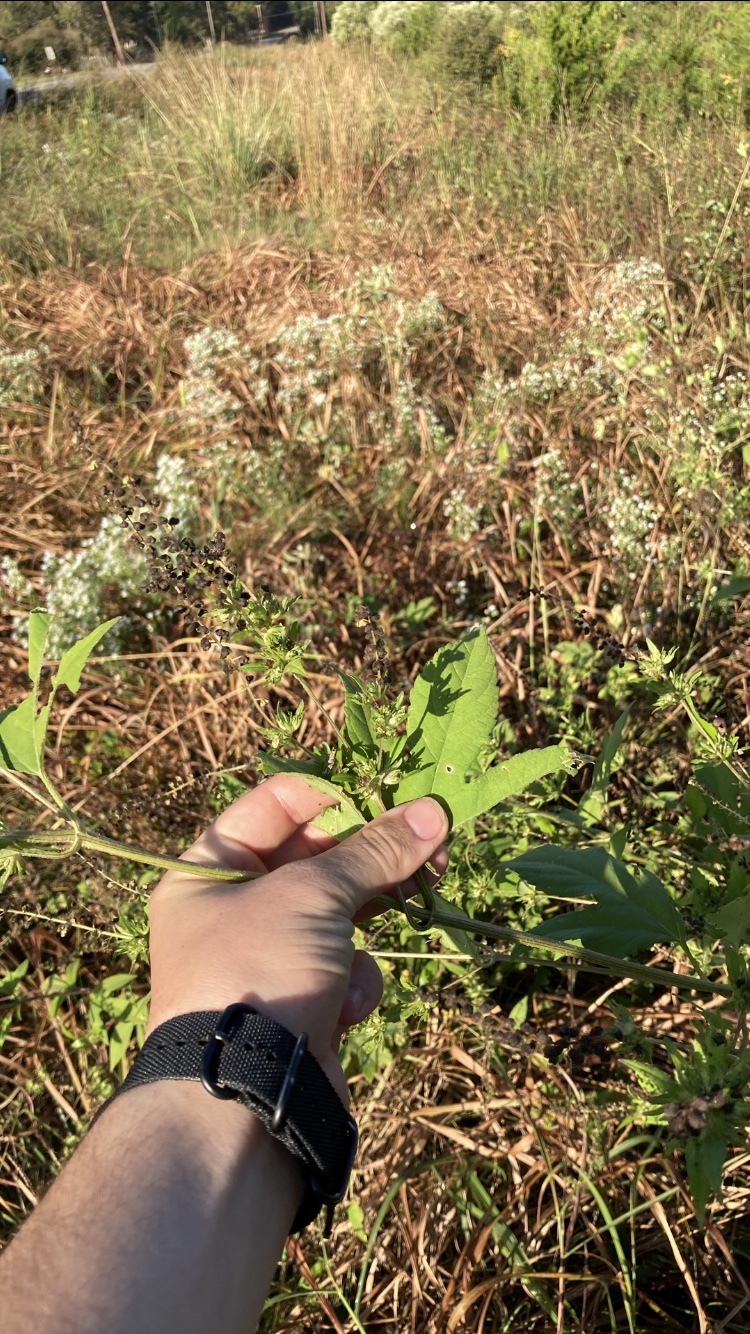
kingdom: Plantae
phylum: Tracheophyta
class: Magnoliopsida
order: Asterales
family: Asteraceae
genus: Ambrosia
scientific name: Ambrosia trifida
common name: Giant ragweed
